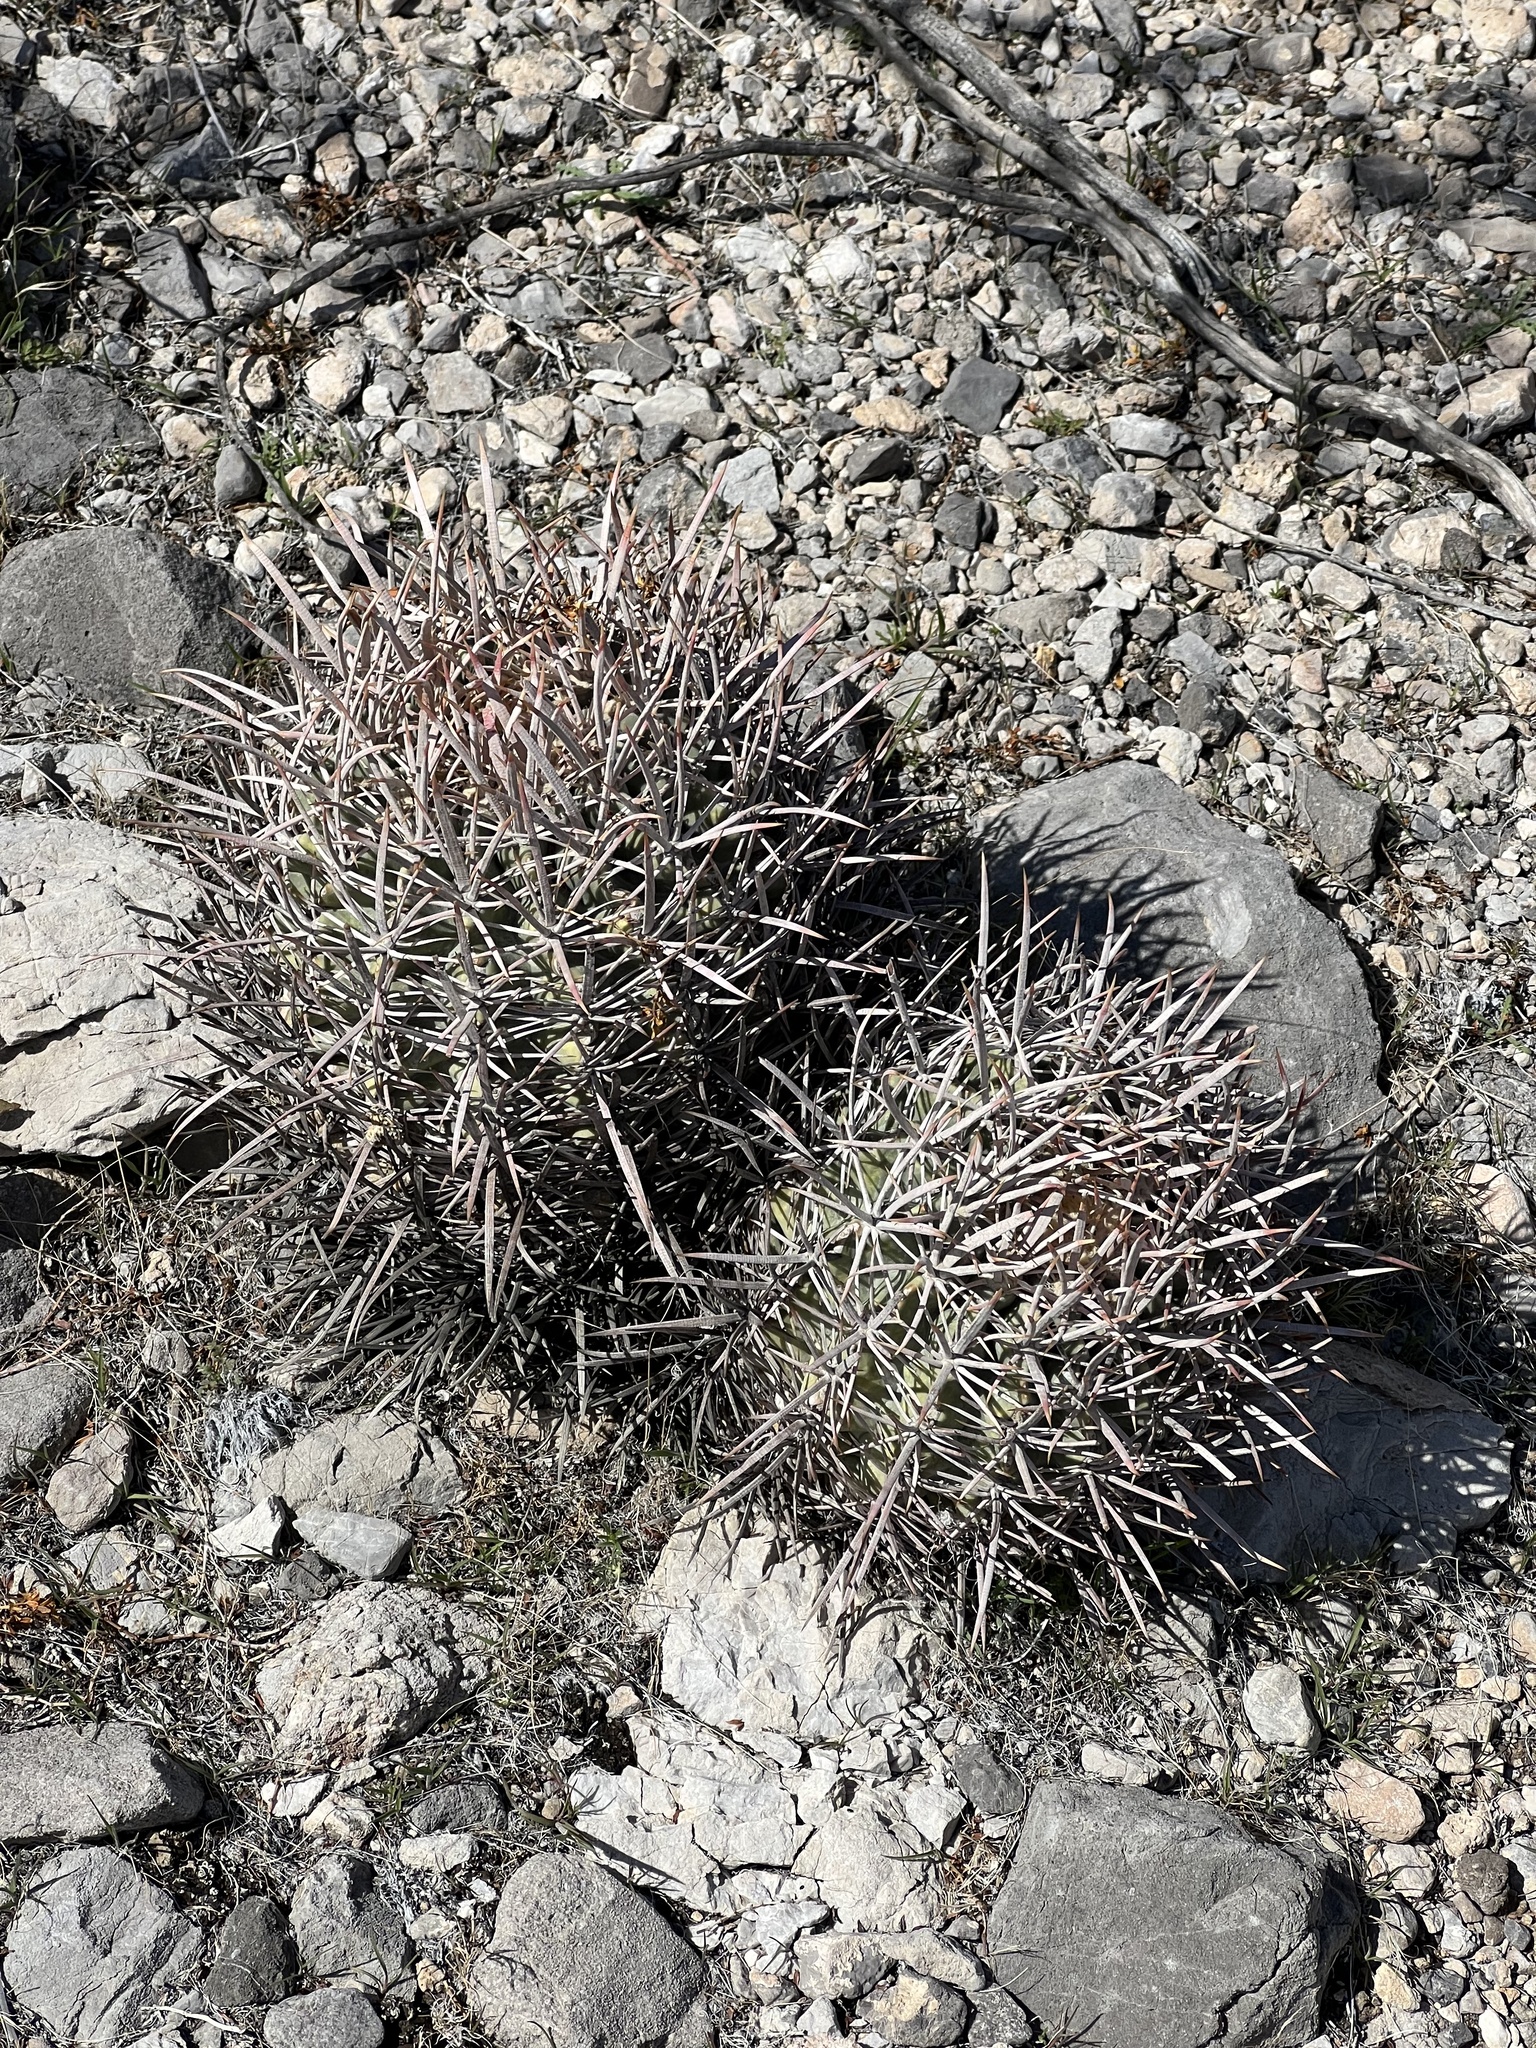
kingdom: Plantae
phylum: Tracheophyta
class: Magnoliopsida
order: Caryophyllales
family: Cactaceae
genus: Echinocactus
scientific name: Echinocactus polycephalus
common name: Cottontop cactus
